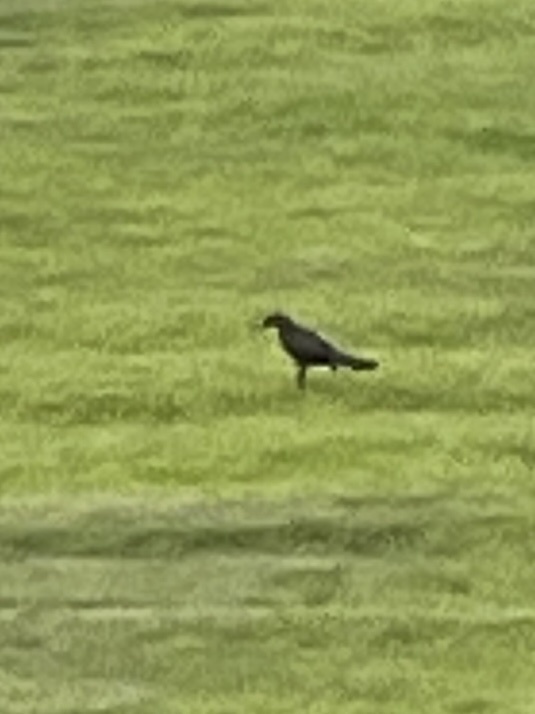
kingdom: Animalia
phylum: Chordata
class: Aves
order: Passeriformes
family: Icteridae
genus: Quiscalus
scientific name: Quiscalus mexicanus
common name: Great-tailed grackle
